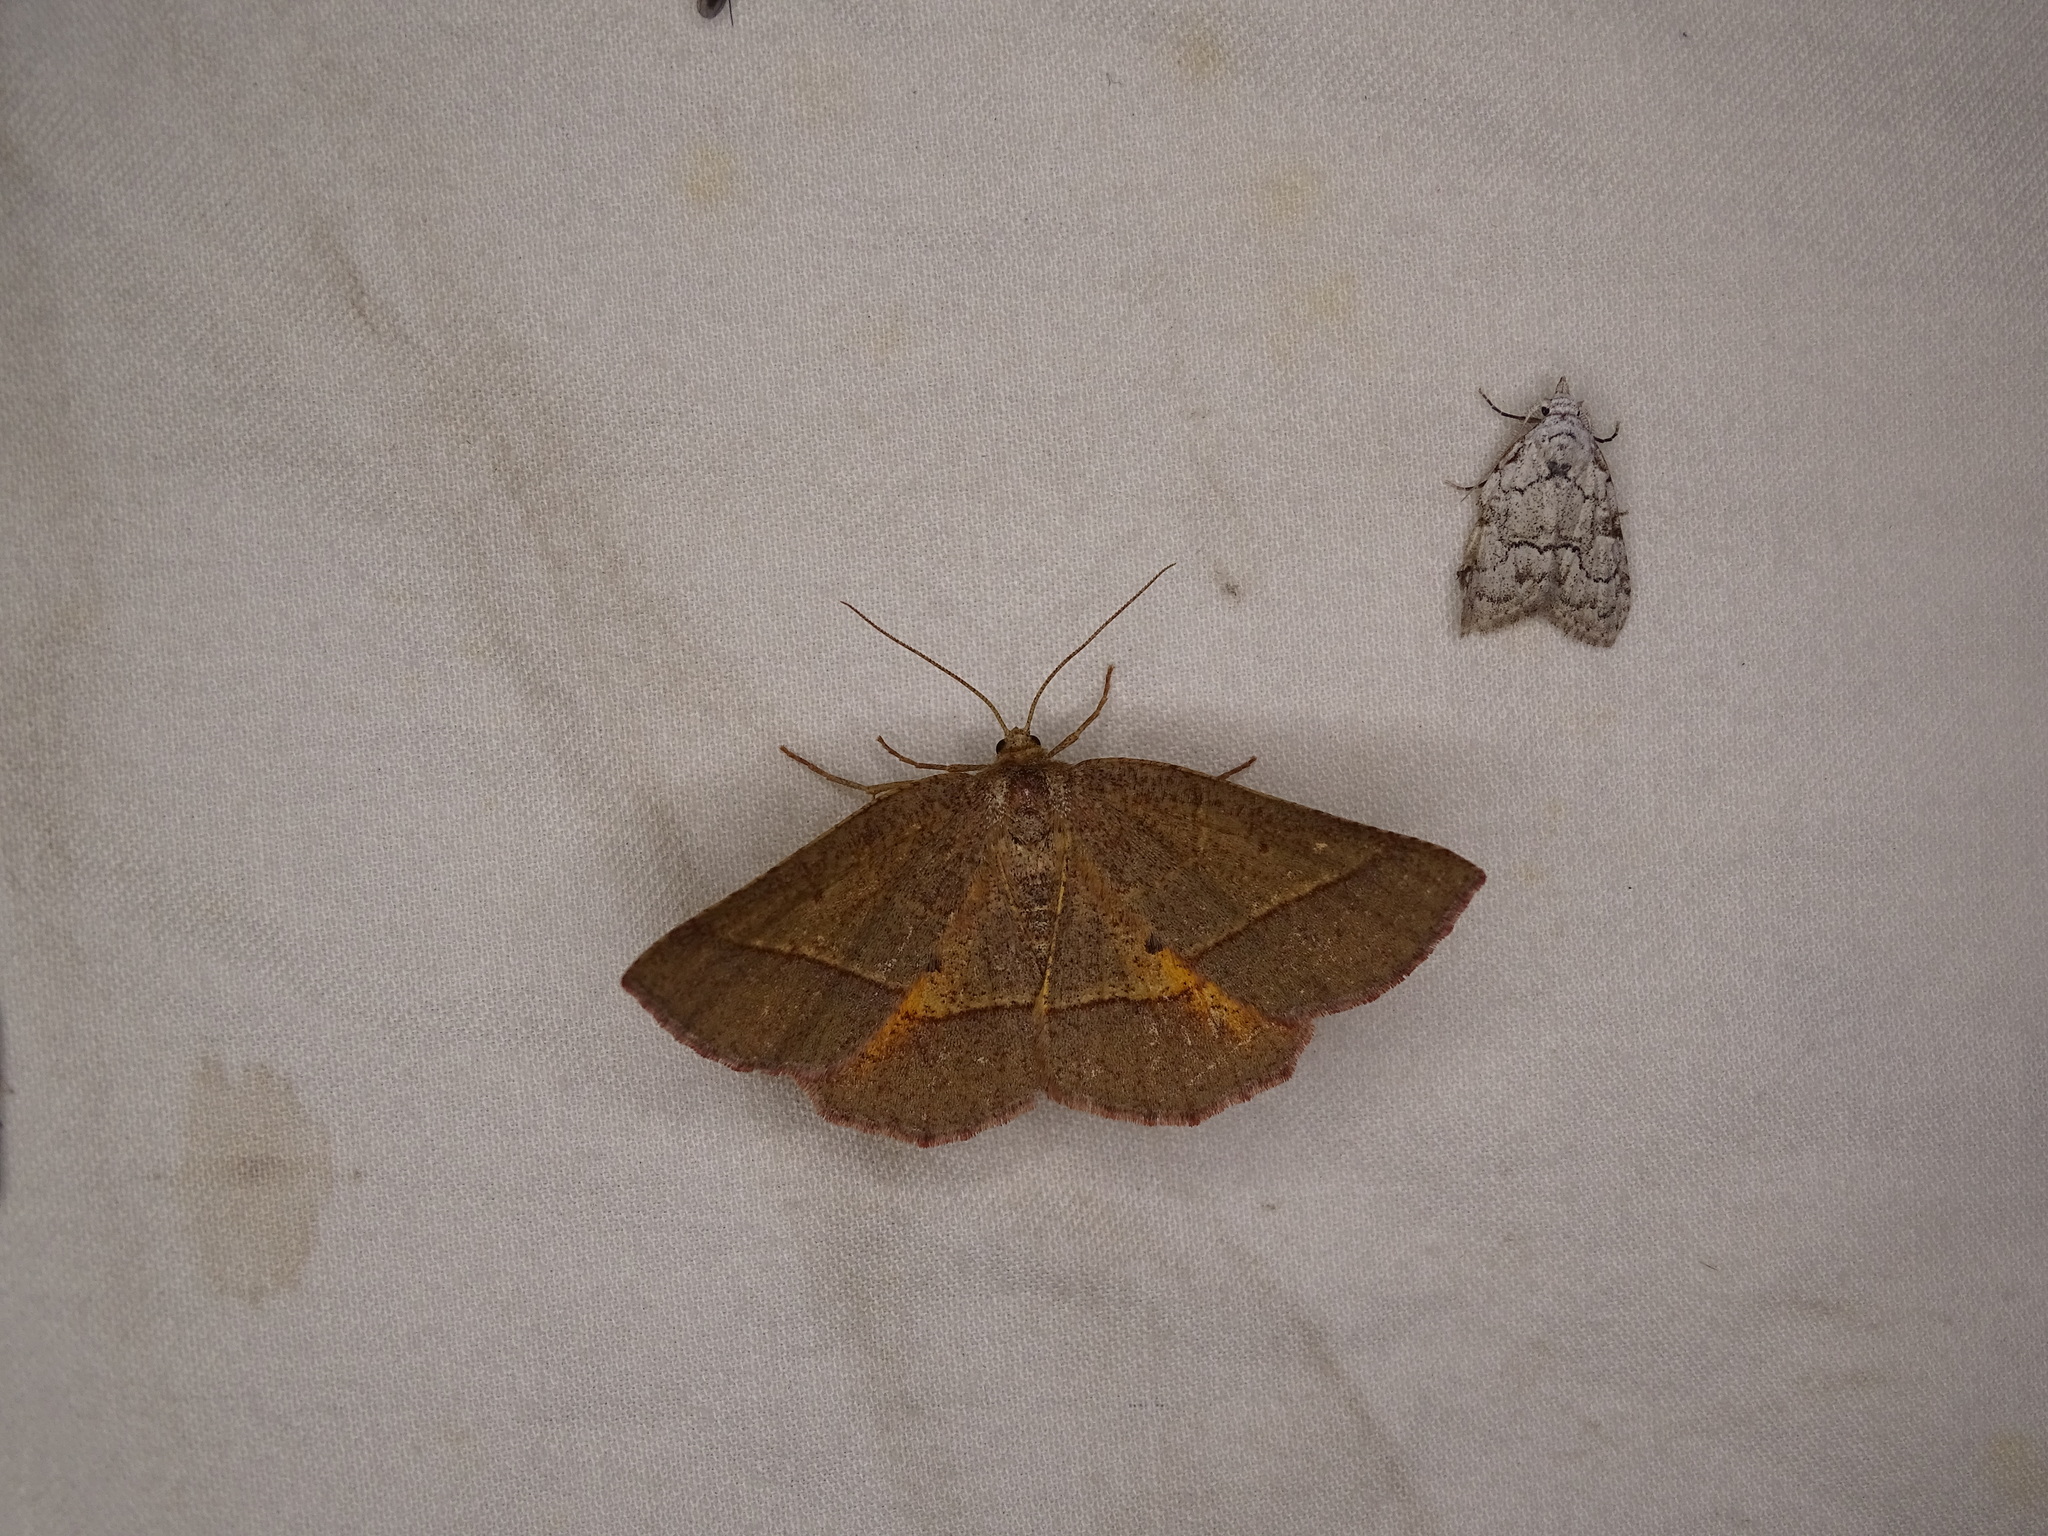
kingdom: Animalia
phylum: Arthropoda
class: Insecta
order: Lepidoptera
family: Geometridae
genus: Metarranthis
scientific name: Metarranthis obfirmaria
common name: Yellow-washed metarranthis
